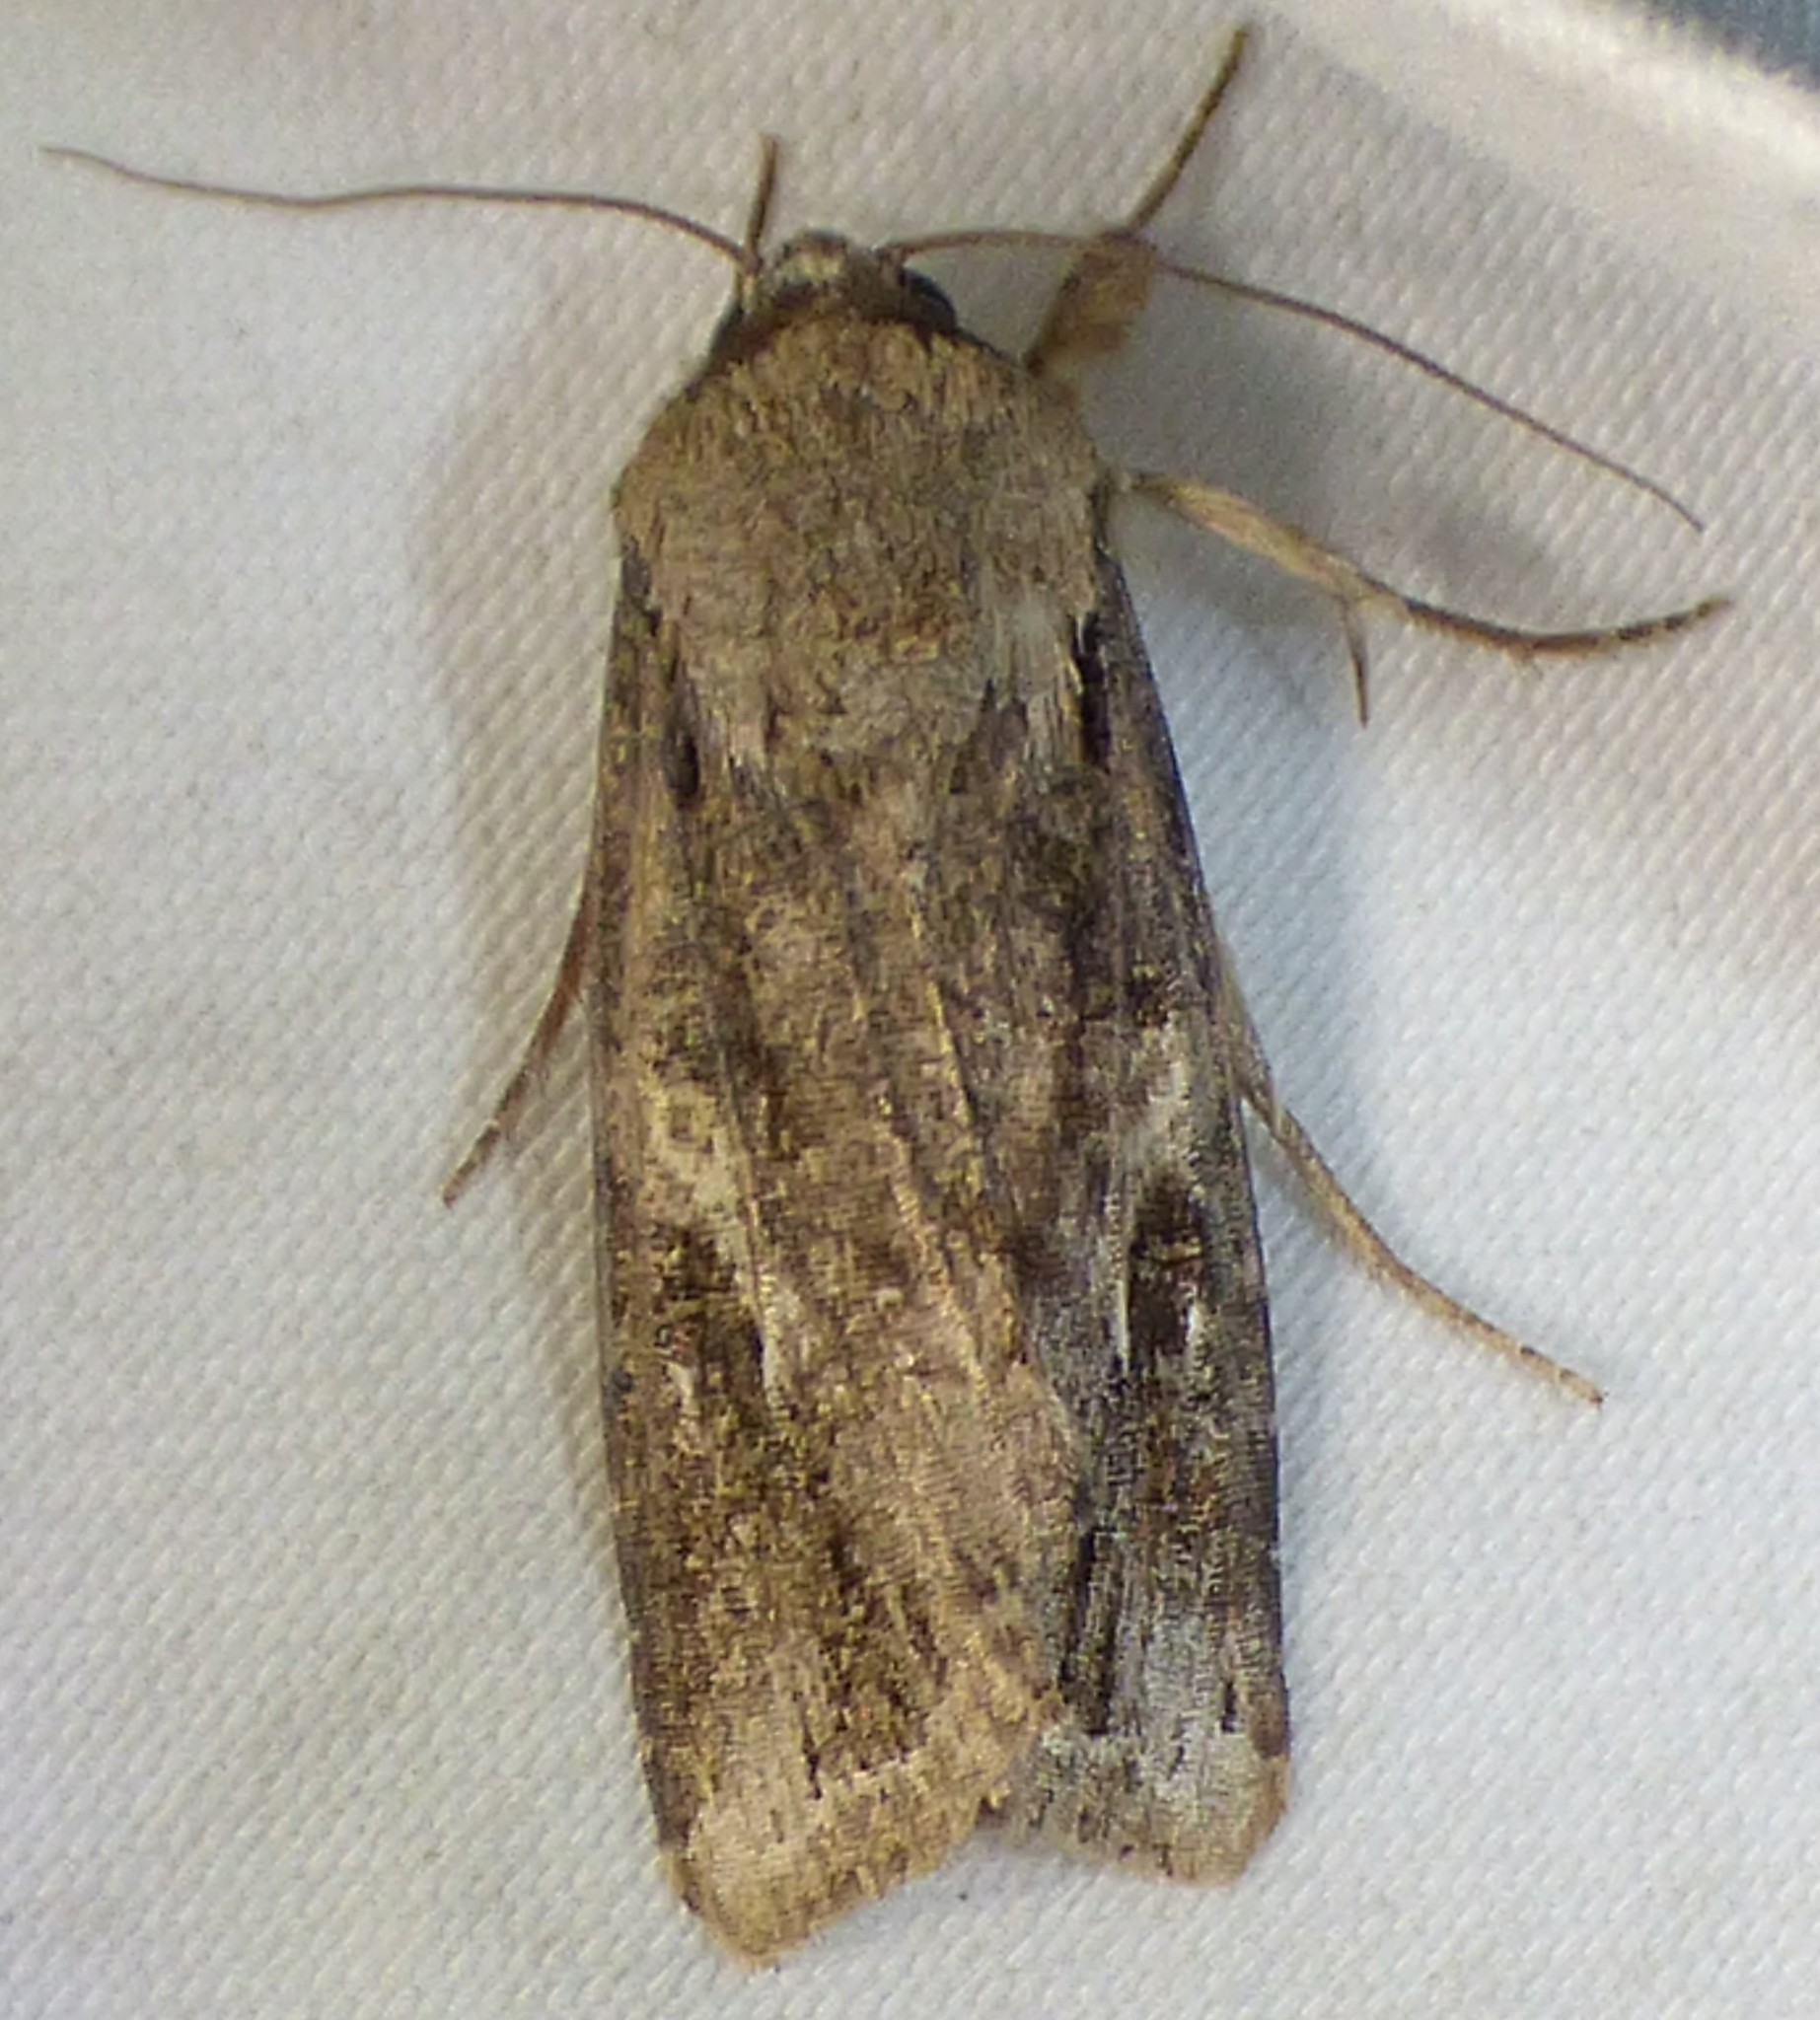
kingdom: Animalia
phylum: Arthropoda
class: Insecta
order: Lepidoptera
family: Noctuidae
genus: Spodoptera
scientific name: Spodoptera frugiperda
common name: Fall armyworm
